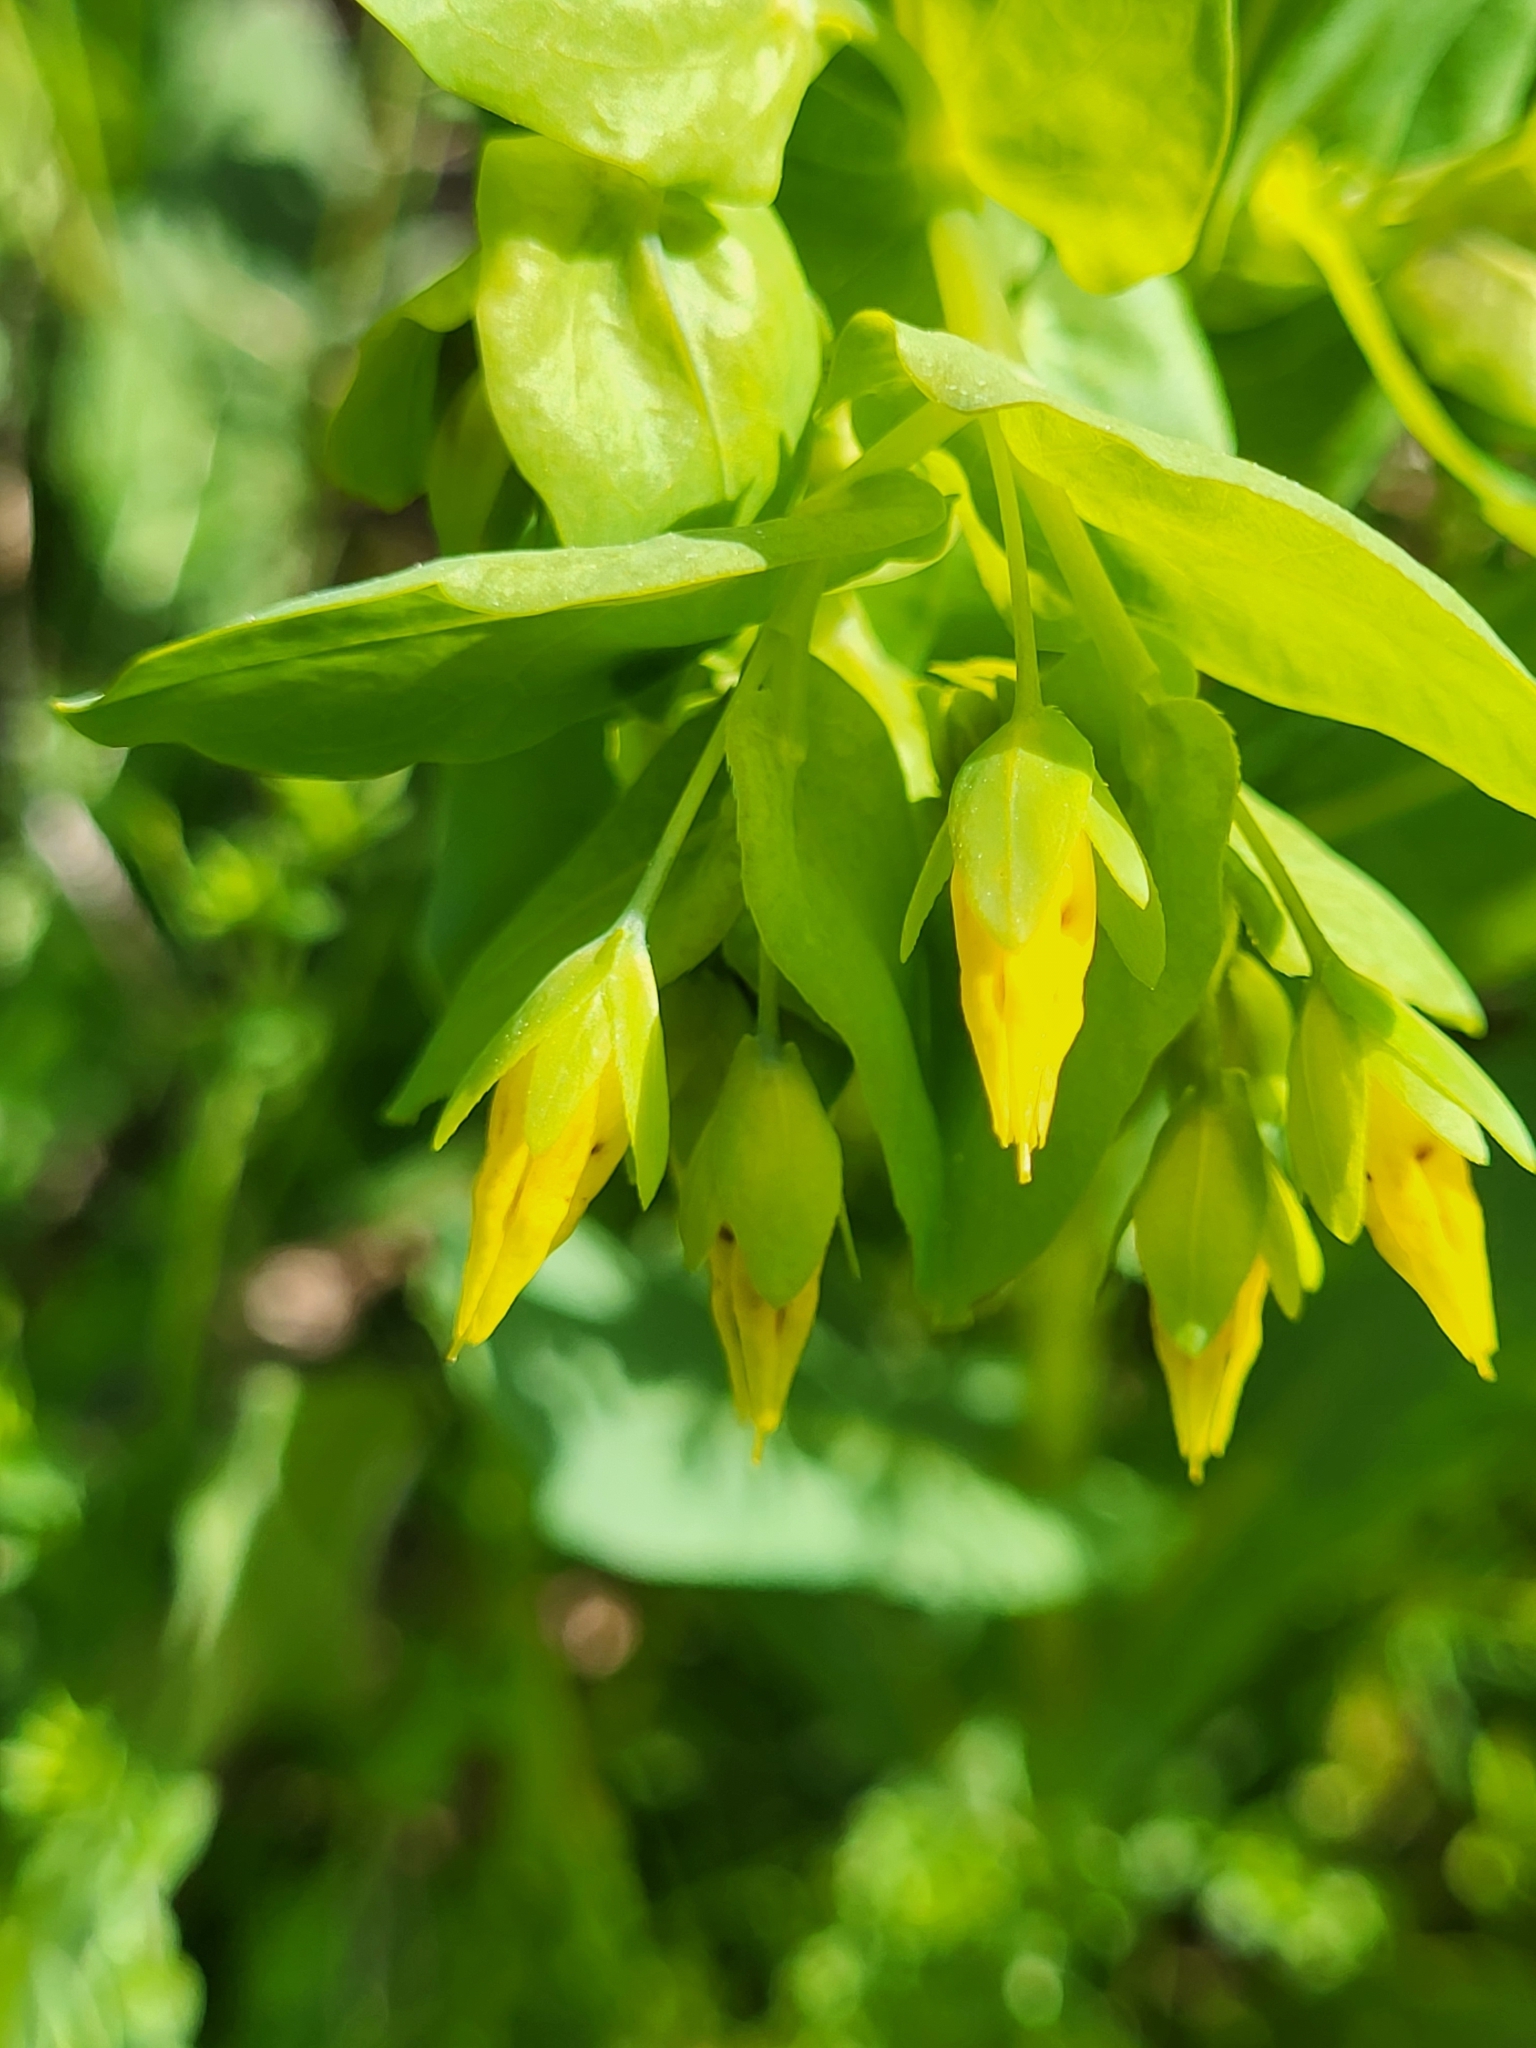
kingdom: Plantae
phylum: Tracheophyta
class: Magnoliopsida
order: Boraginales
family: Boraginaceae
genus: Cerinthe
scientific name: Cerinthe minor
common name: Lesser honeywort
